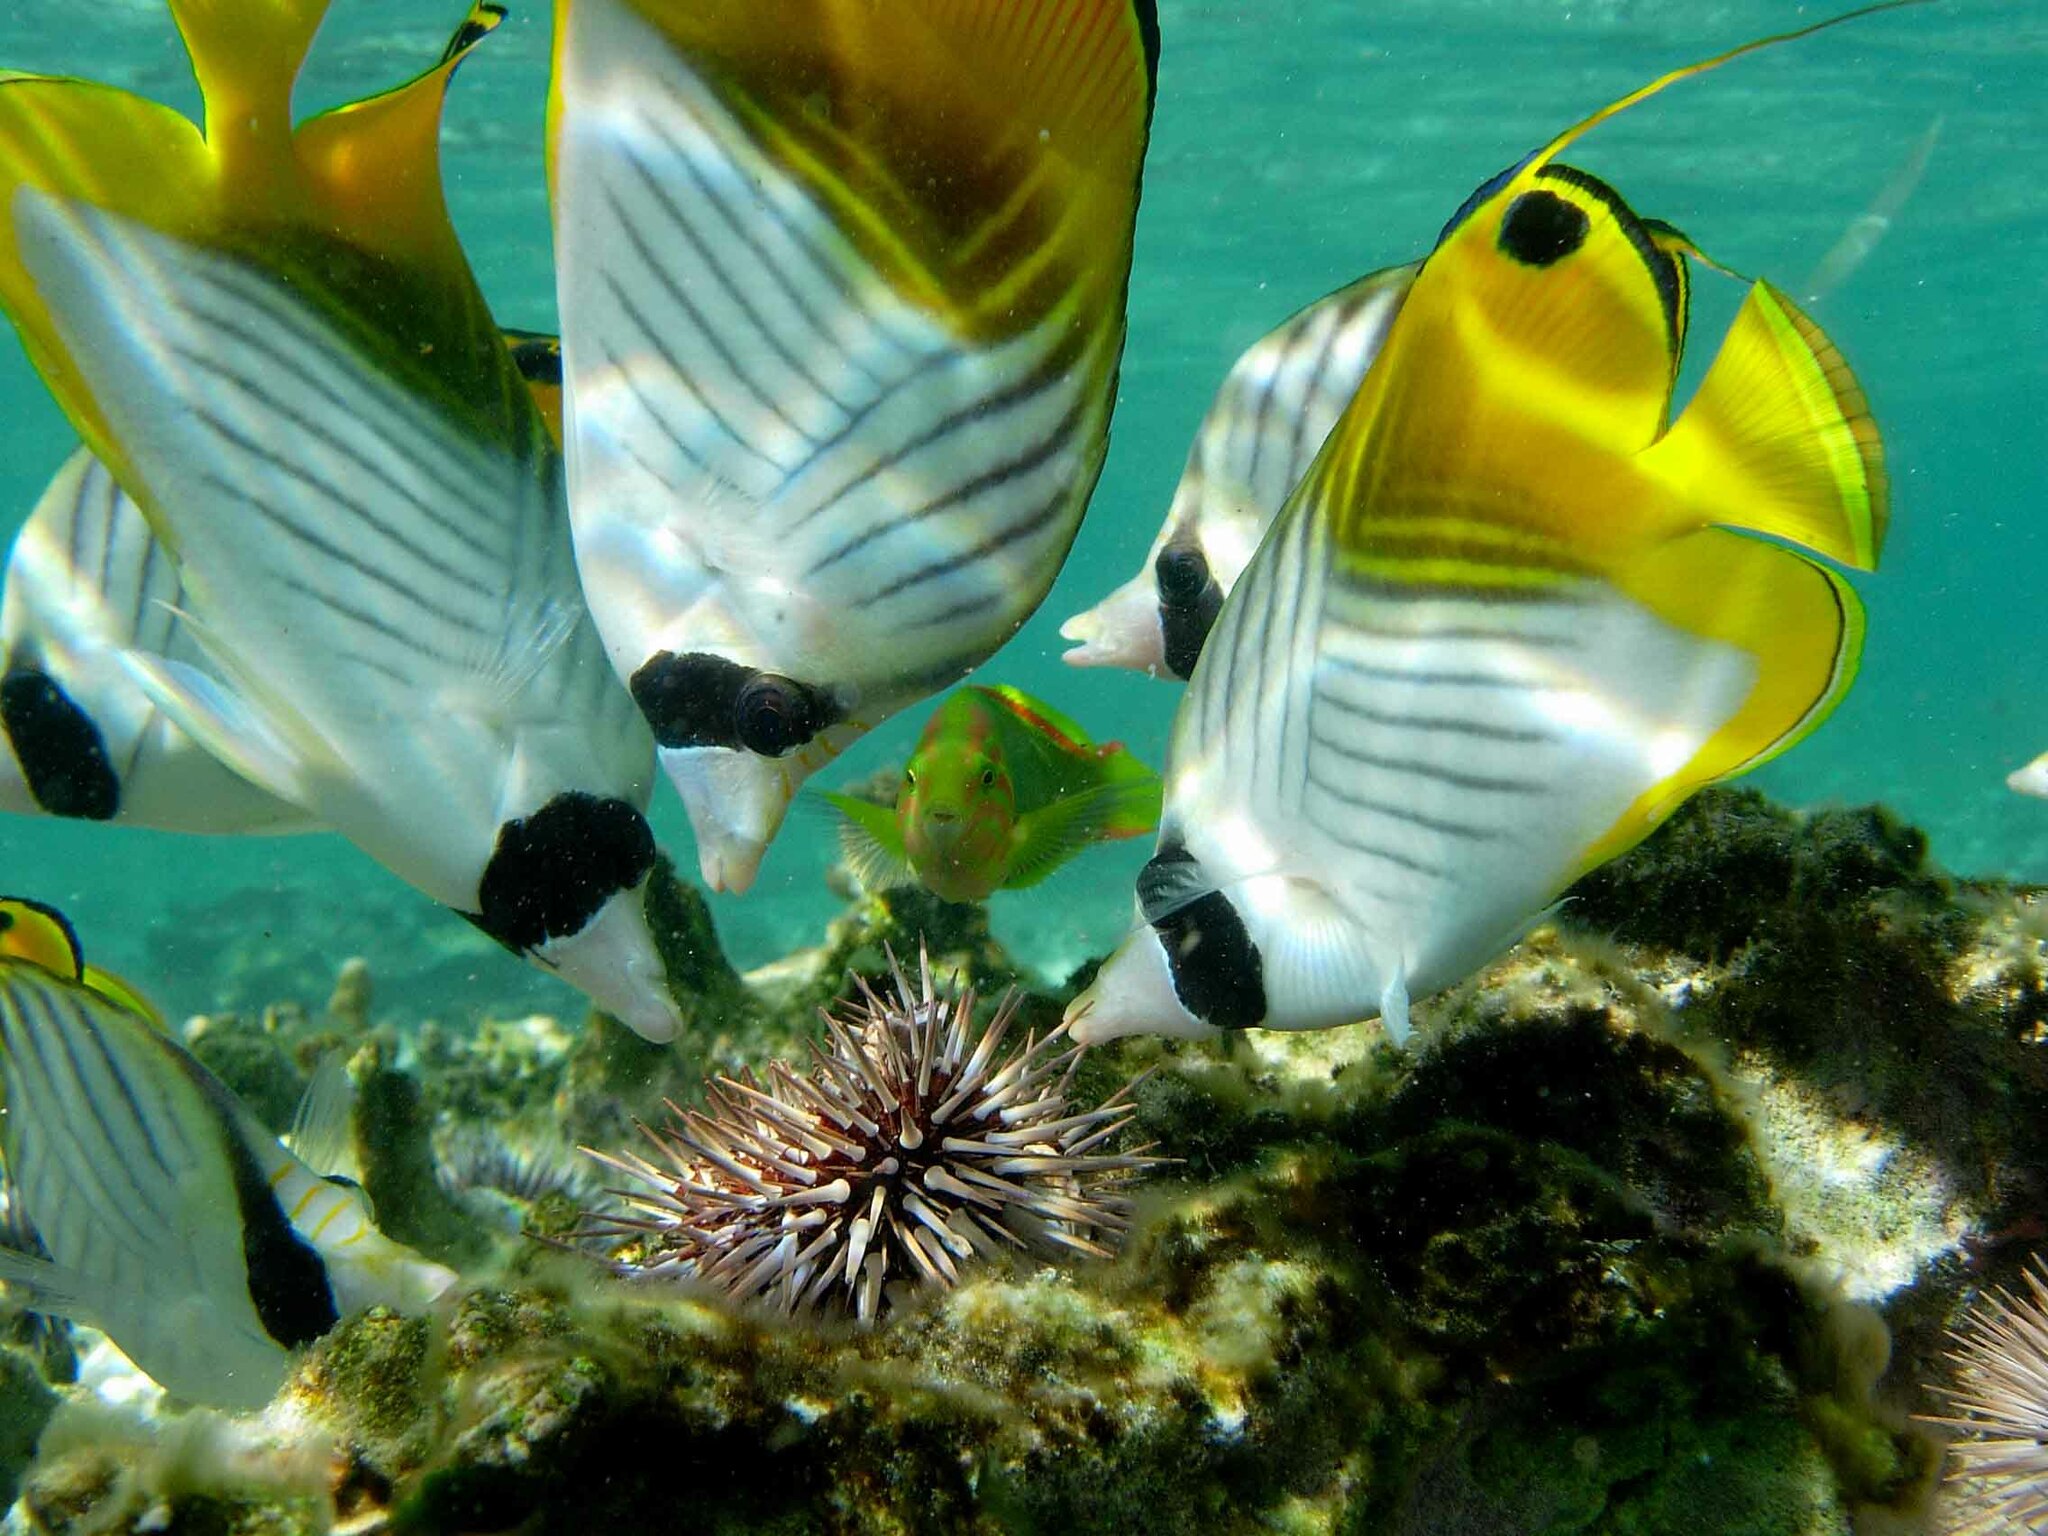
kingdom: Animalia
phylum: Chordata
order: Perciformes
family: Chaetodontidae
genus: Chaetodon
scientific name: Chaetodon auriga
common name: Threadfin butterflyfish
